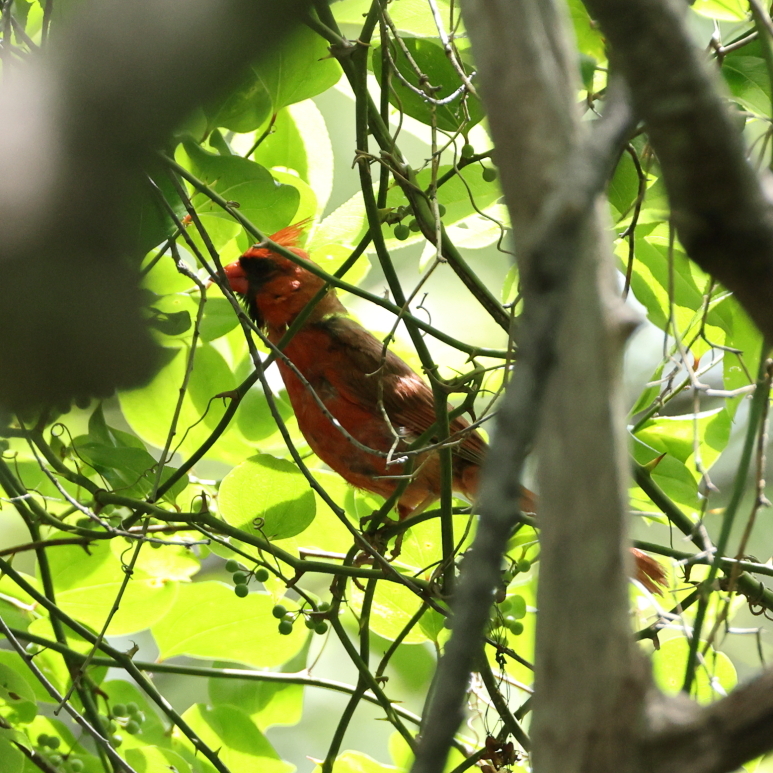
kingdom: Animalia
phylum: Chordata
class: Aves
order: Passeriformes
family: Cardinalidae
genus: Cardinalis
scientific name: Cardinalis cardinalis
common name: Northern cardinal
